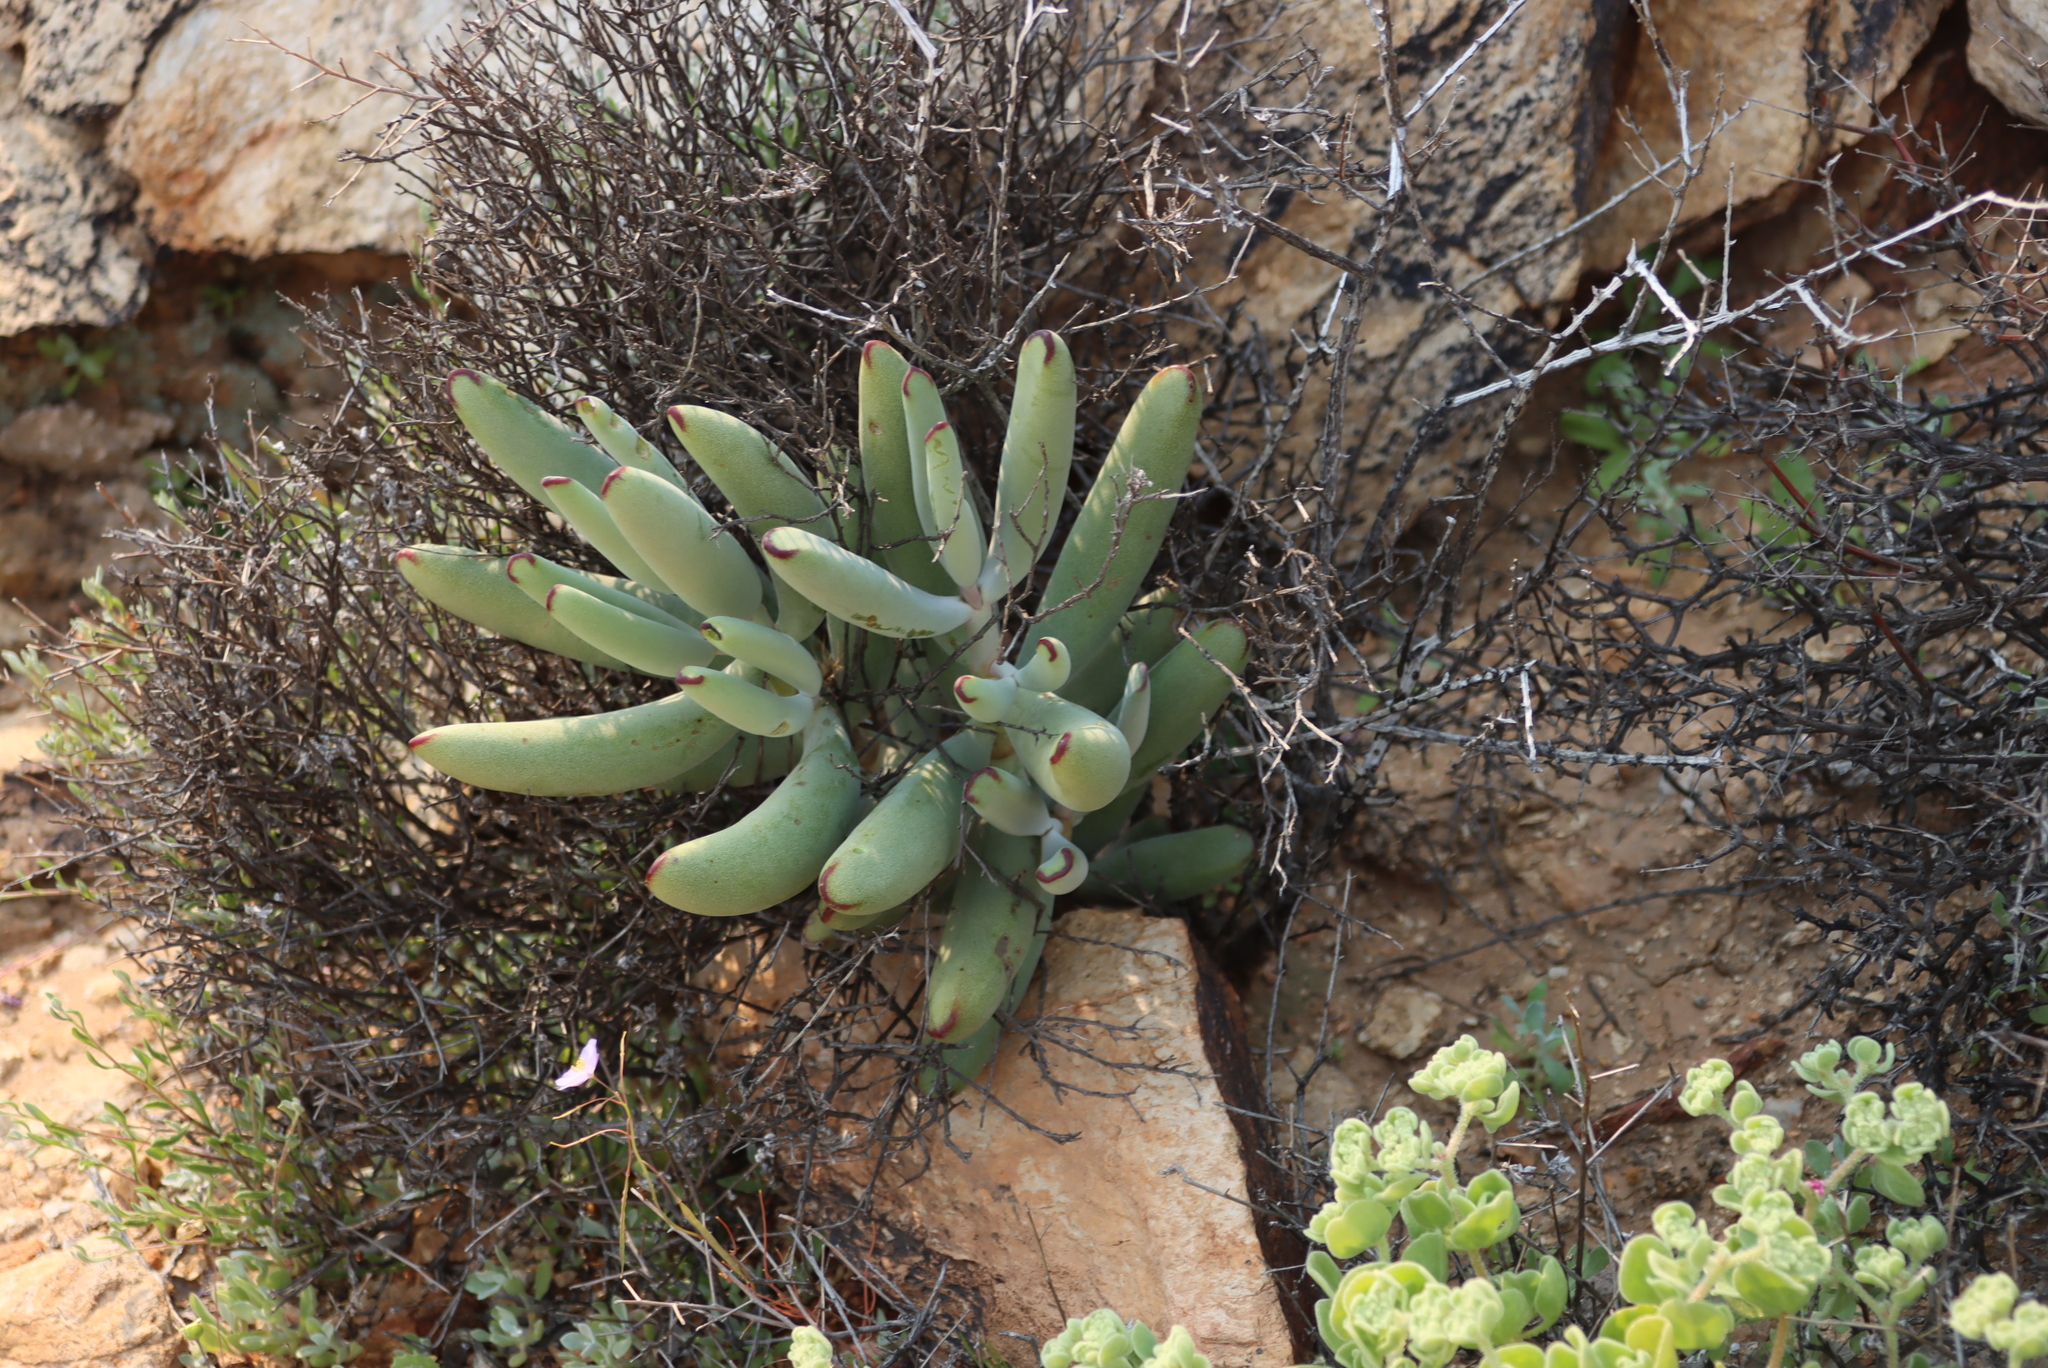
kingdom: Plantae
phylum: Tracheophyta
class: Magnoliopsida
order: Saxifragales
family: Crassulaceae
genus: Cotyledon
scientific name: Cotyledon orbiculata
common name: Pig's ear
